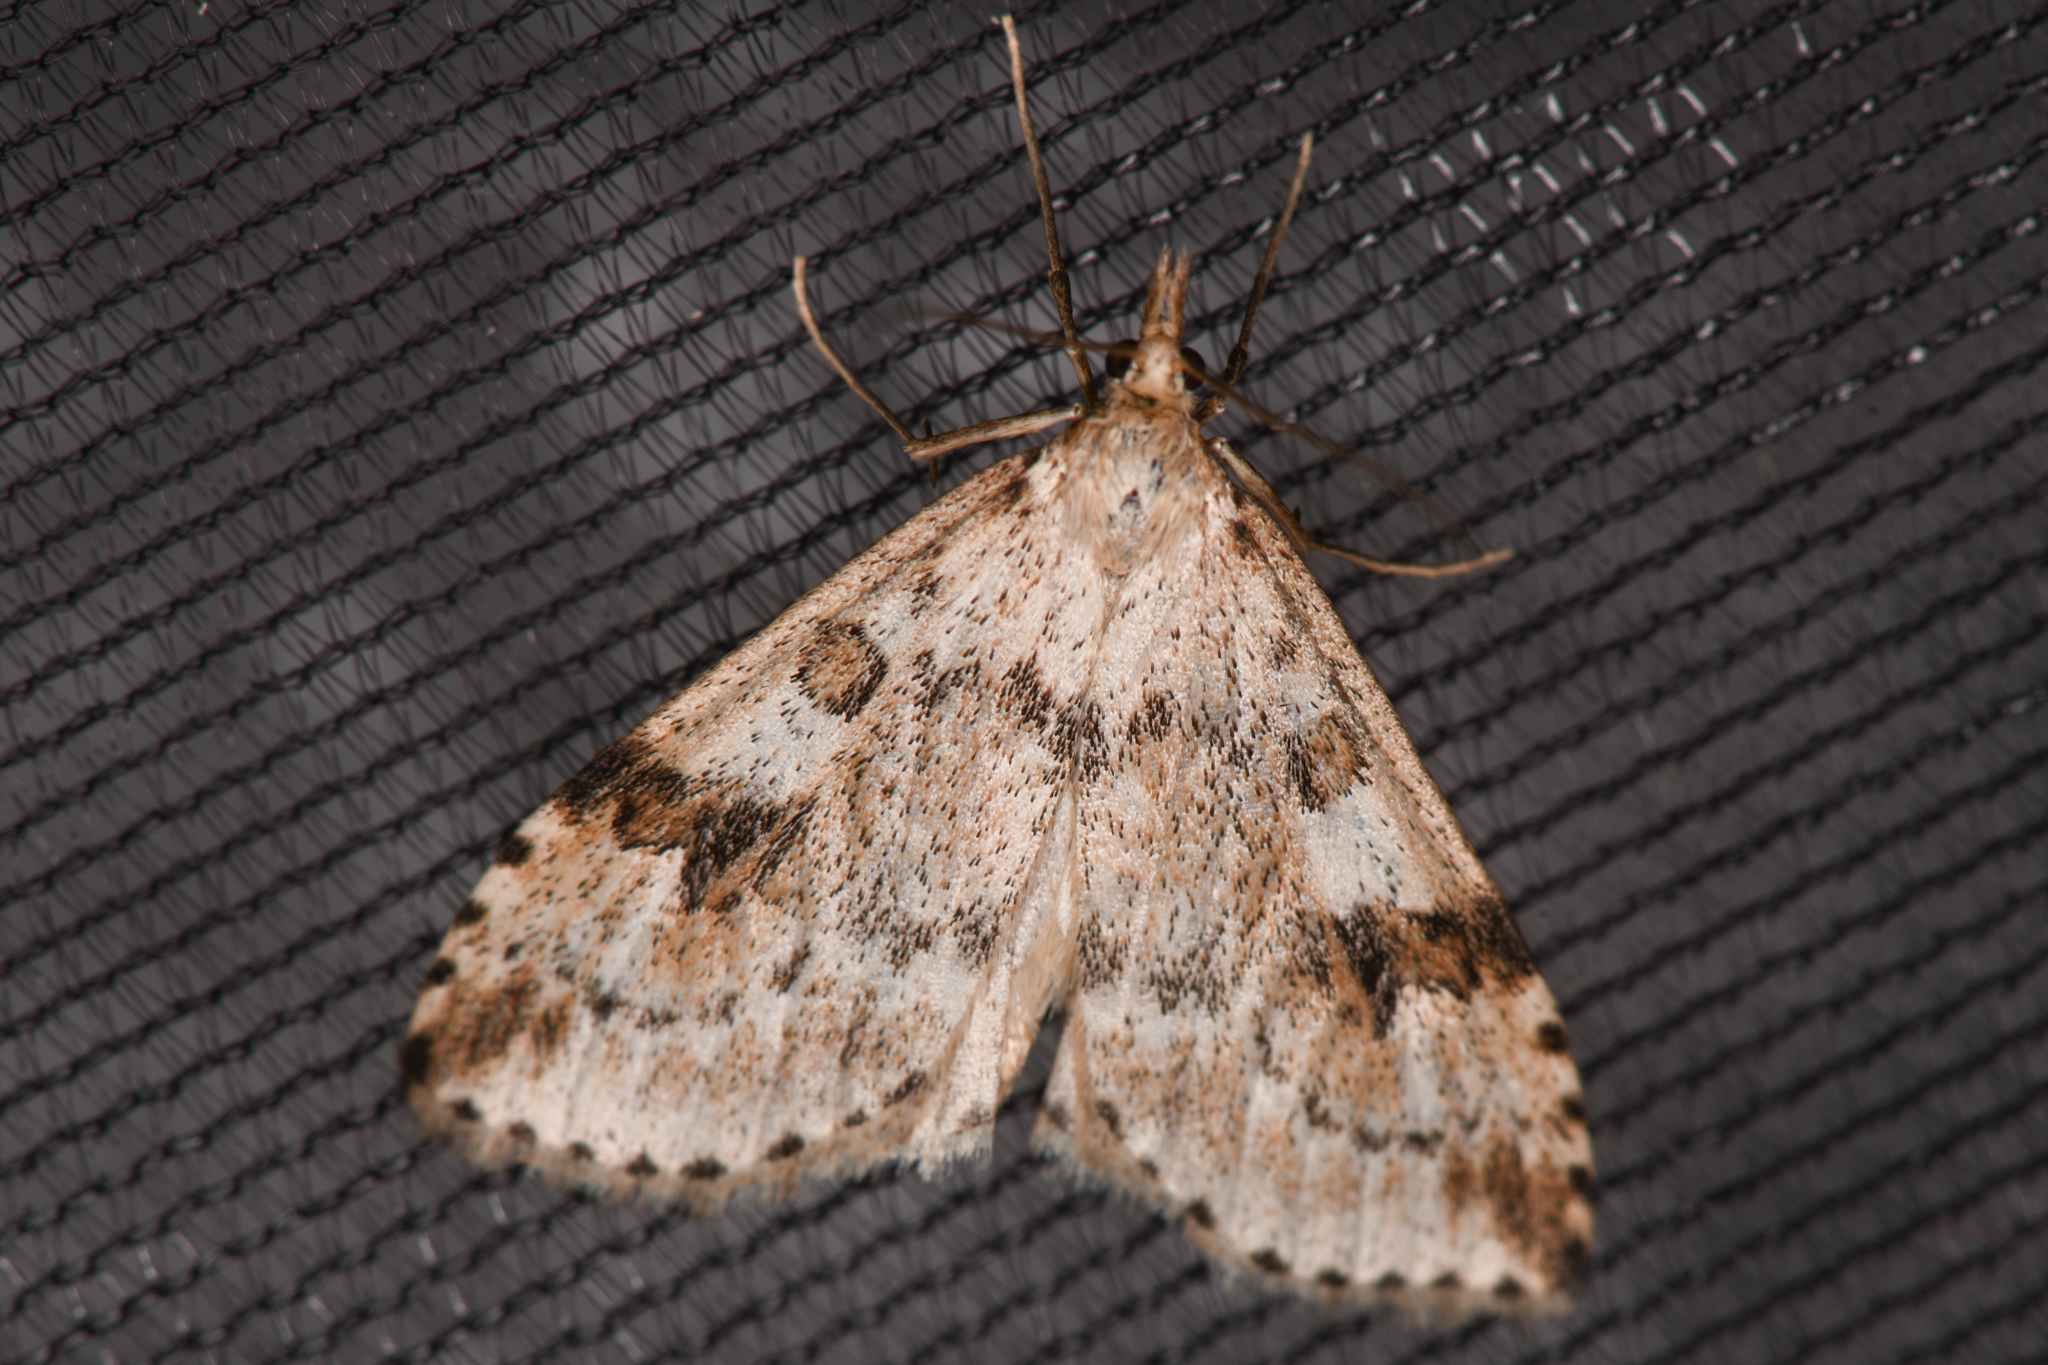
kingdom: Animalia
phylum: Arthropoda
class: Insecta
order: Lepidoptera
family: Crambidae
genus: Udea
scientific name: Udea washingtonalis
